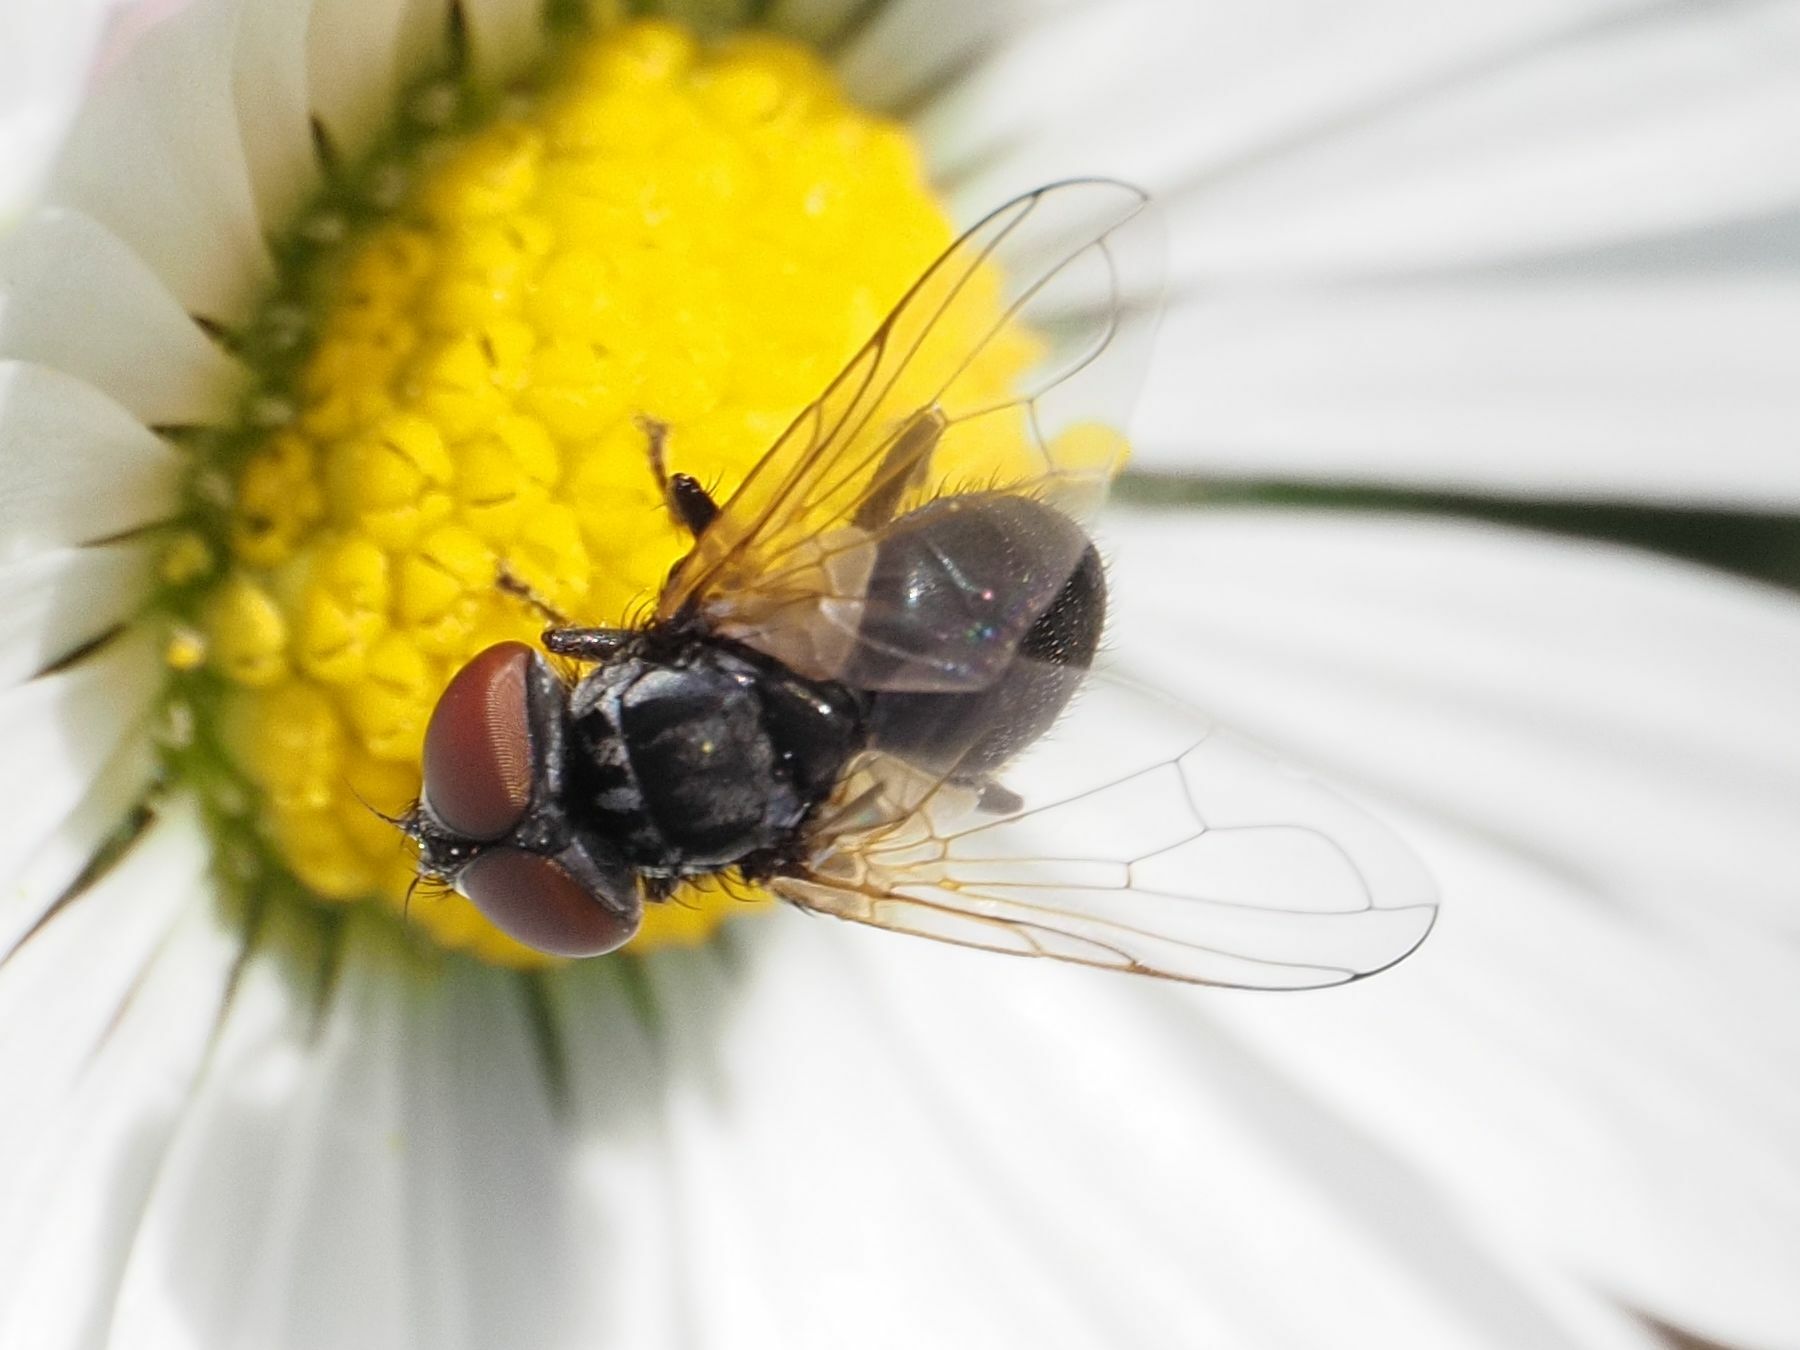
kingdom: Animalia
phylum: Arthropoda
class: Insecta
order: Diptera
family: Tachinidae
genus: Phasia
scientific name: Phasia obesa
